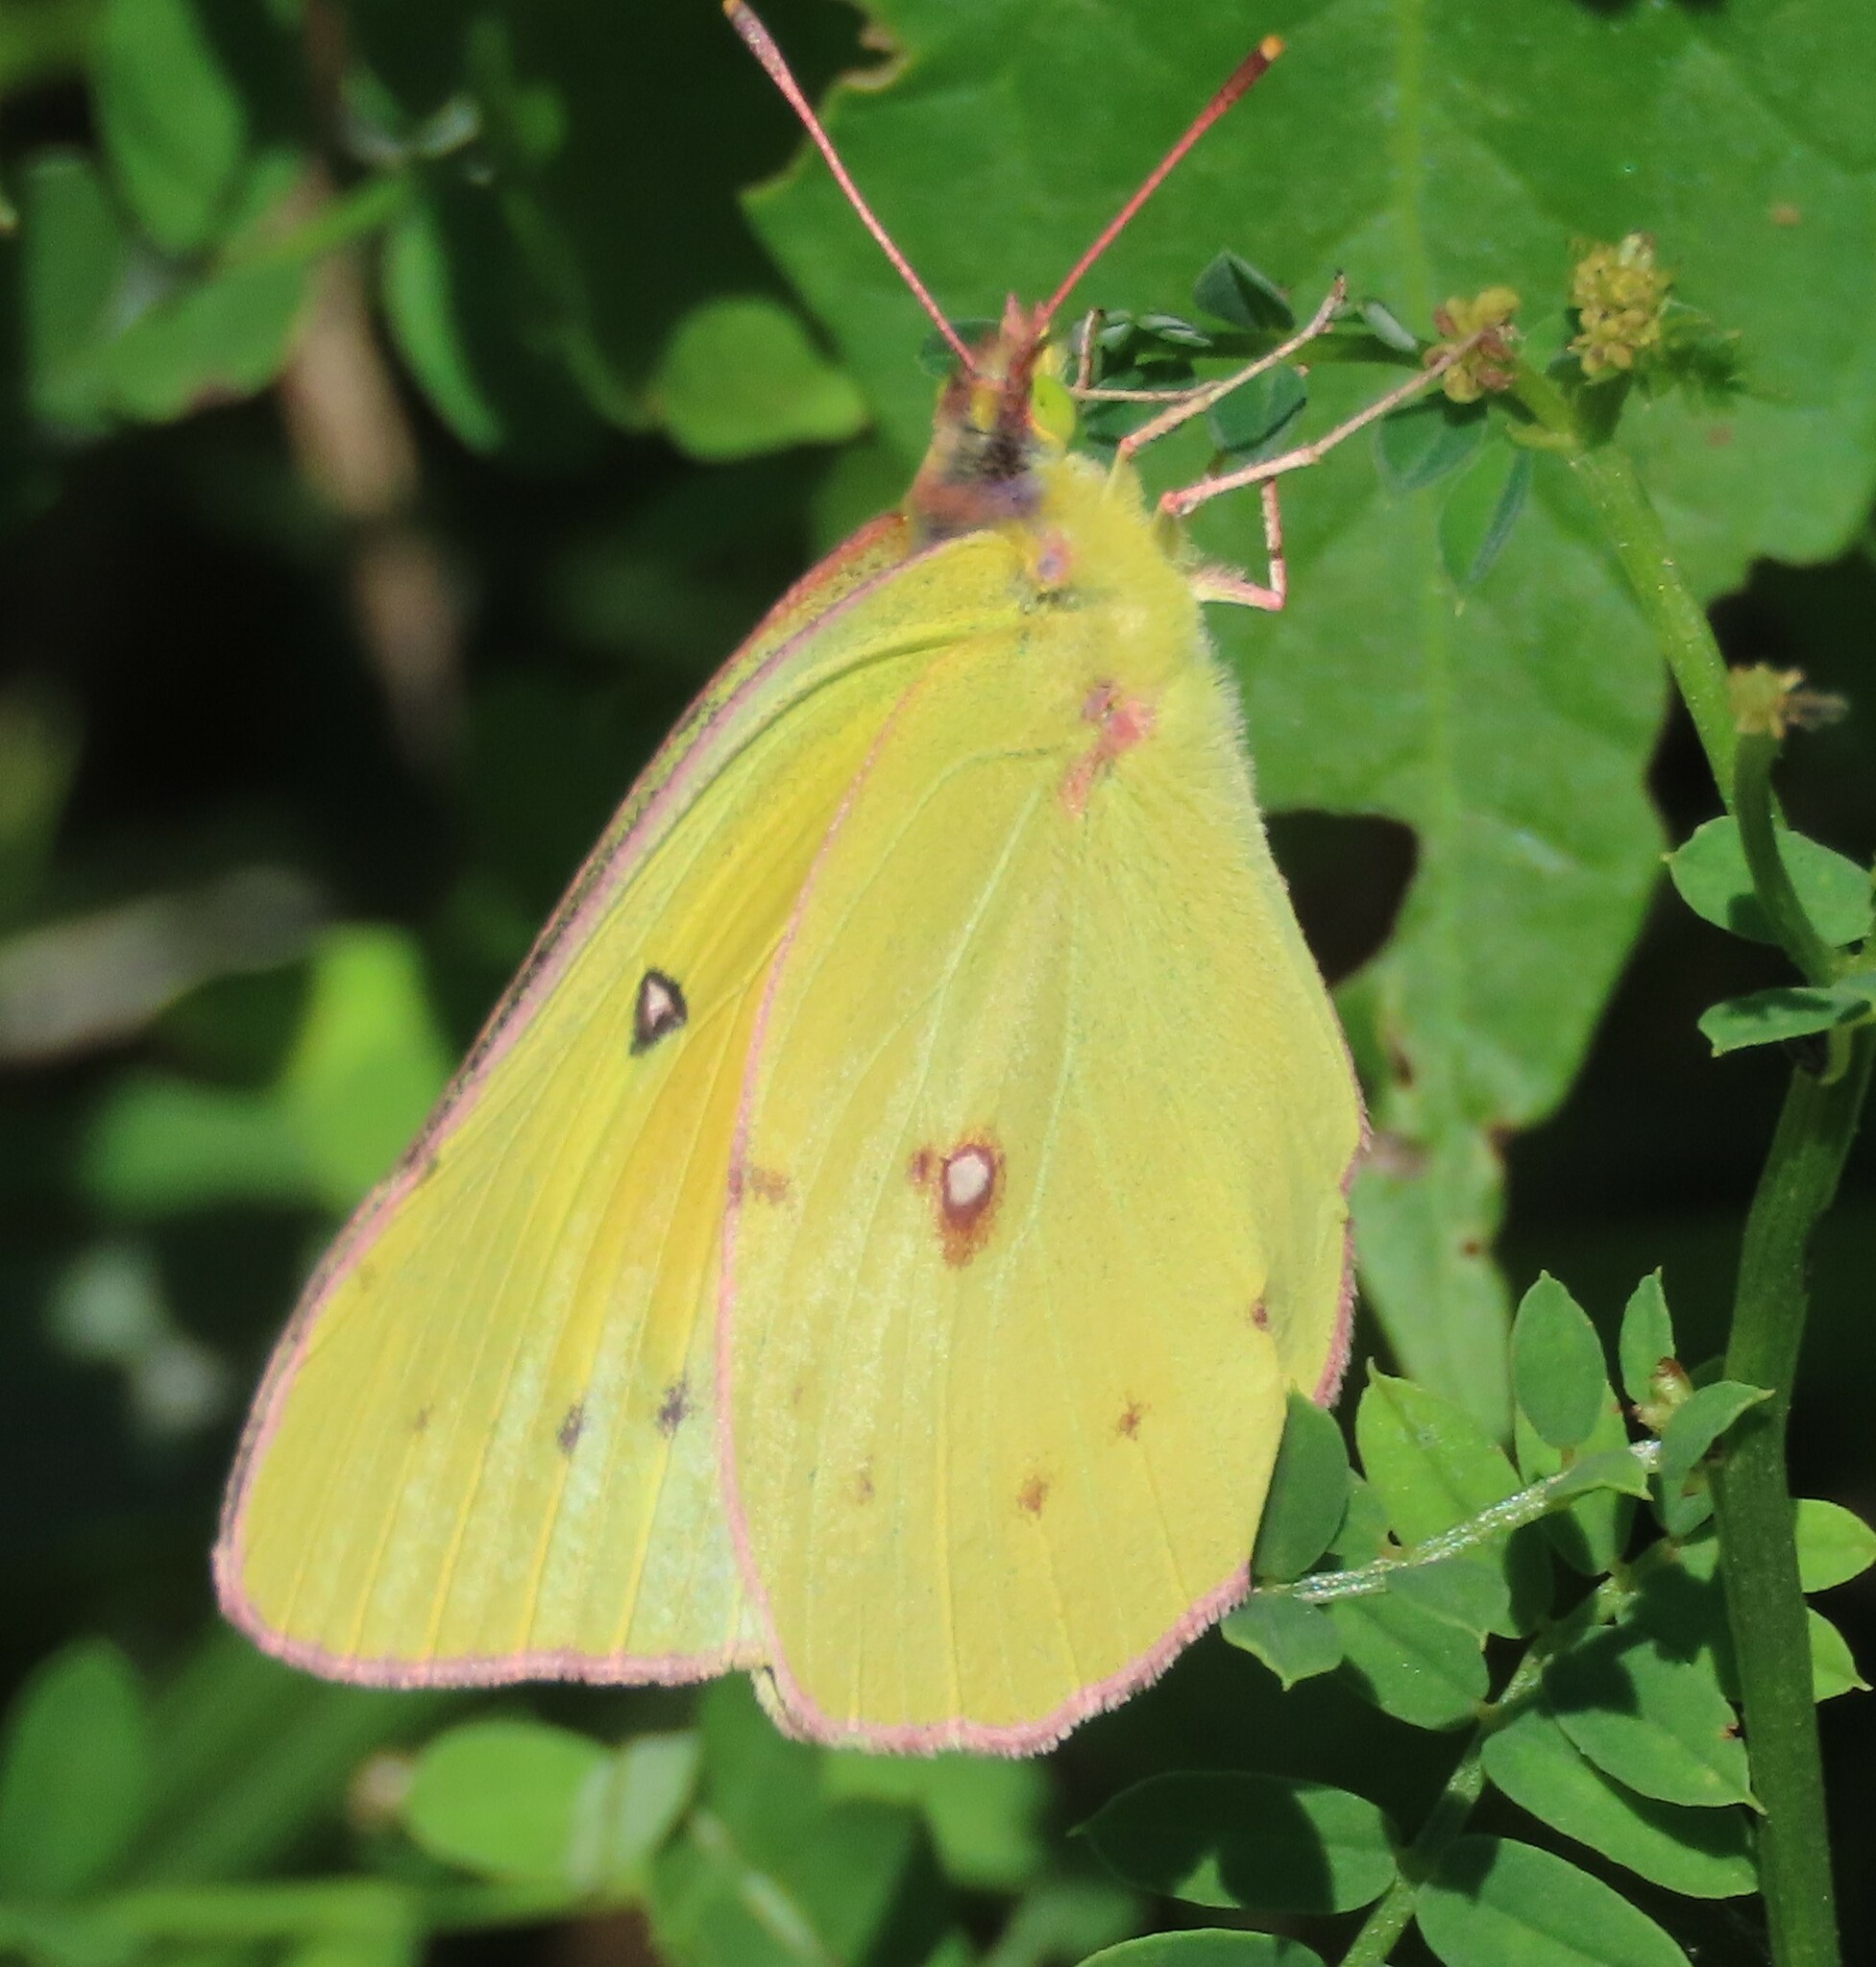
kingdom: Animalia
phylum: Arthropoda
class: Insecta
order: Lepidoptera
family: Pieridae
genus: Colias
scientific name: Colias eurytheme
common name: Alfalfa butterfly
